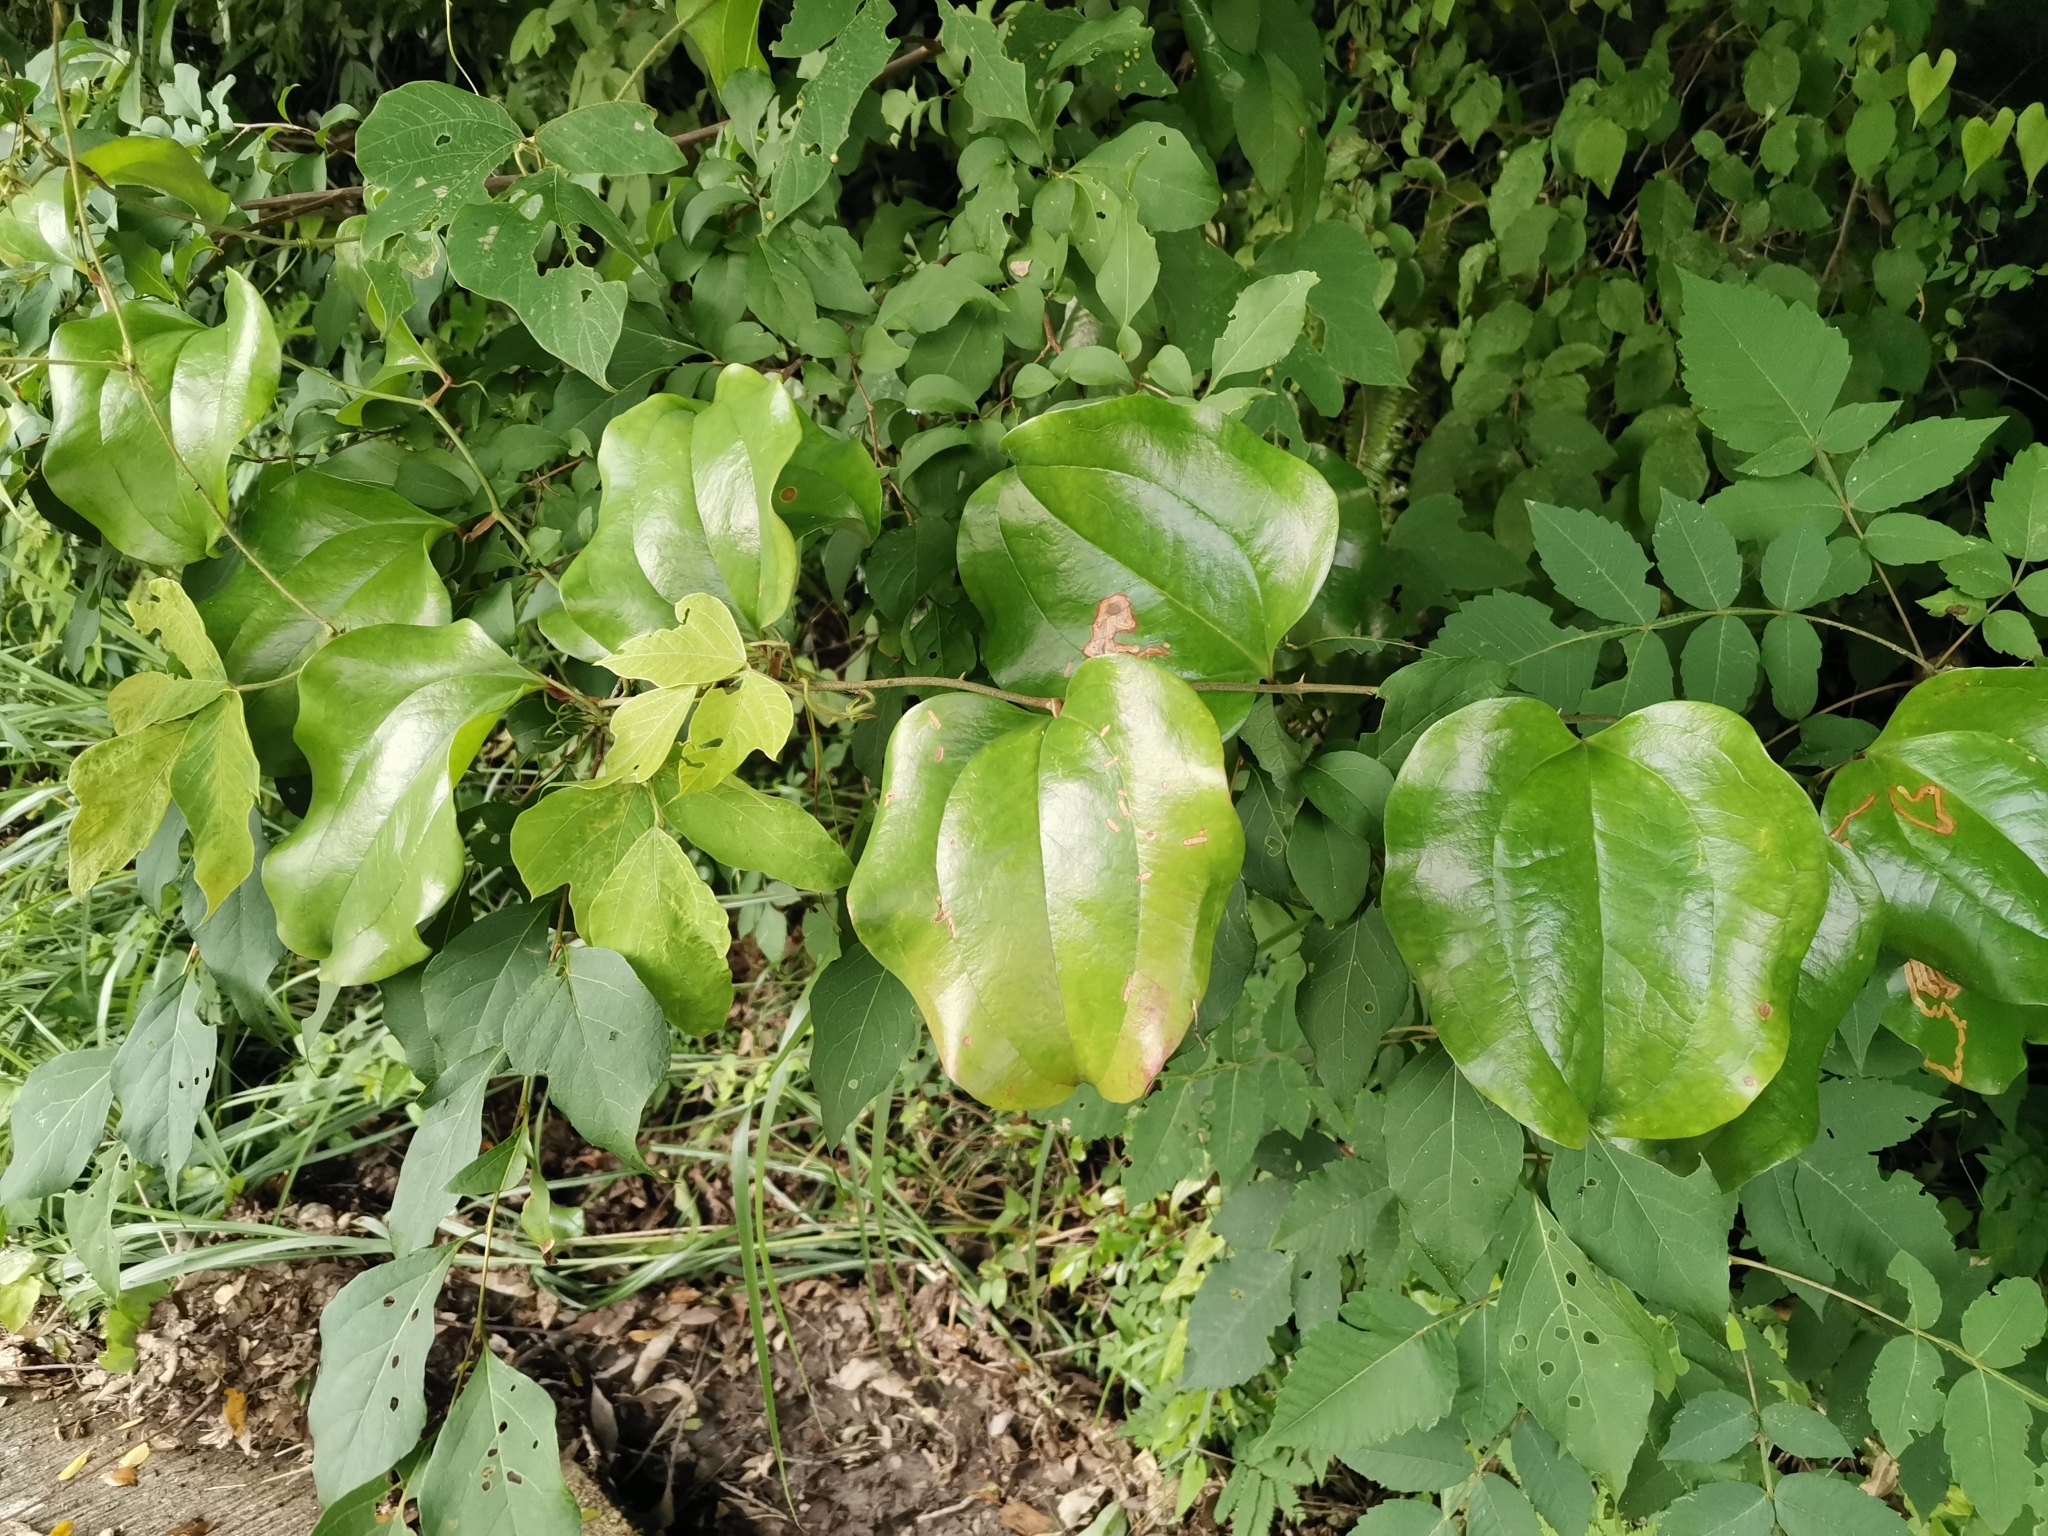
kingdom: Plantae
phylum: Tracheophyta
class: Liliopsida
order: Liliales
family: Smilacaceae
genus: Smilax
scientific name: Smilax china
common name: Chinaroot
